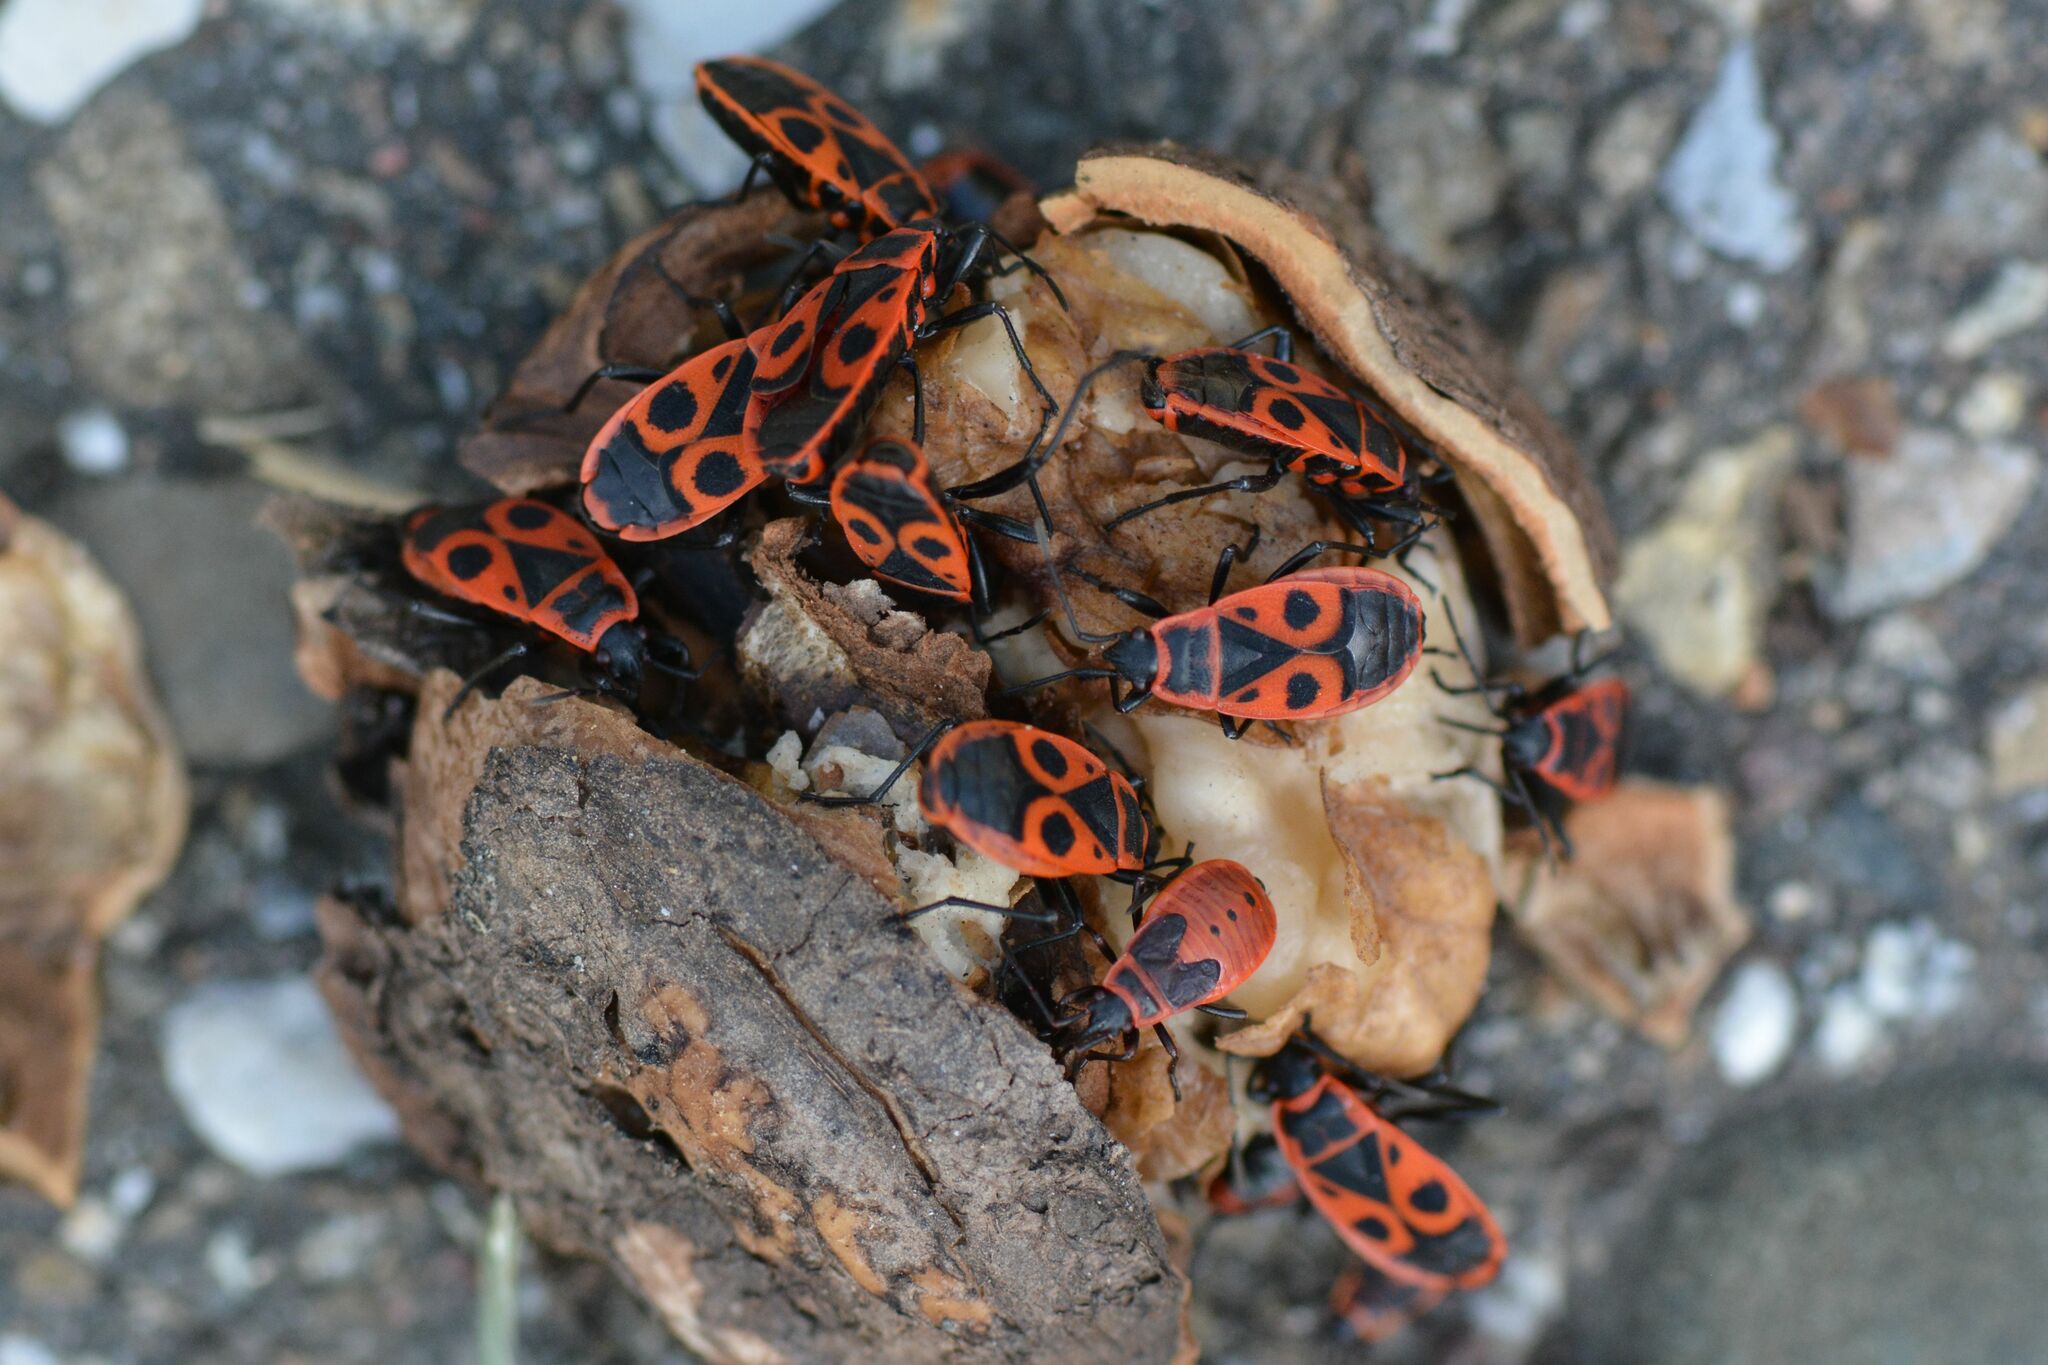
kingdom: Animalia
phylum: Arthropoda
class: Insecta
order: Hemiptera
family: Pyrrhocoridae
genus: Pyrrhocoris
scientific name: Pyrrhocoris apterus
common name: Firebug
